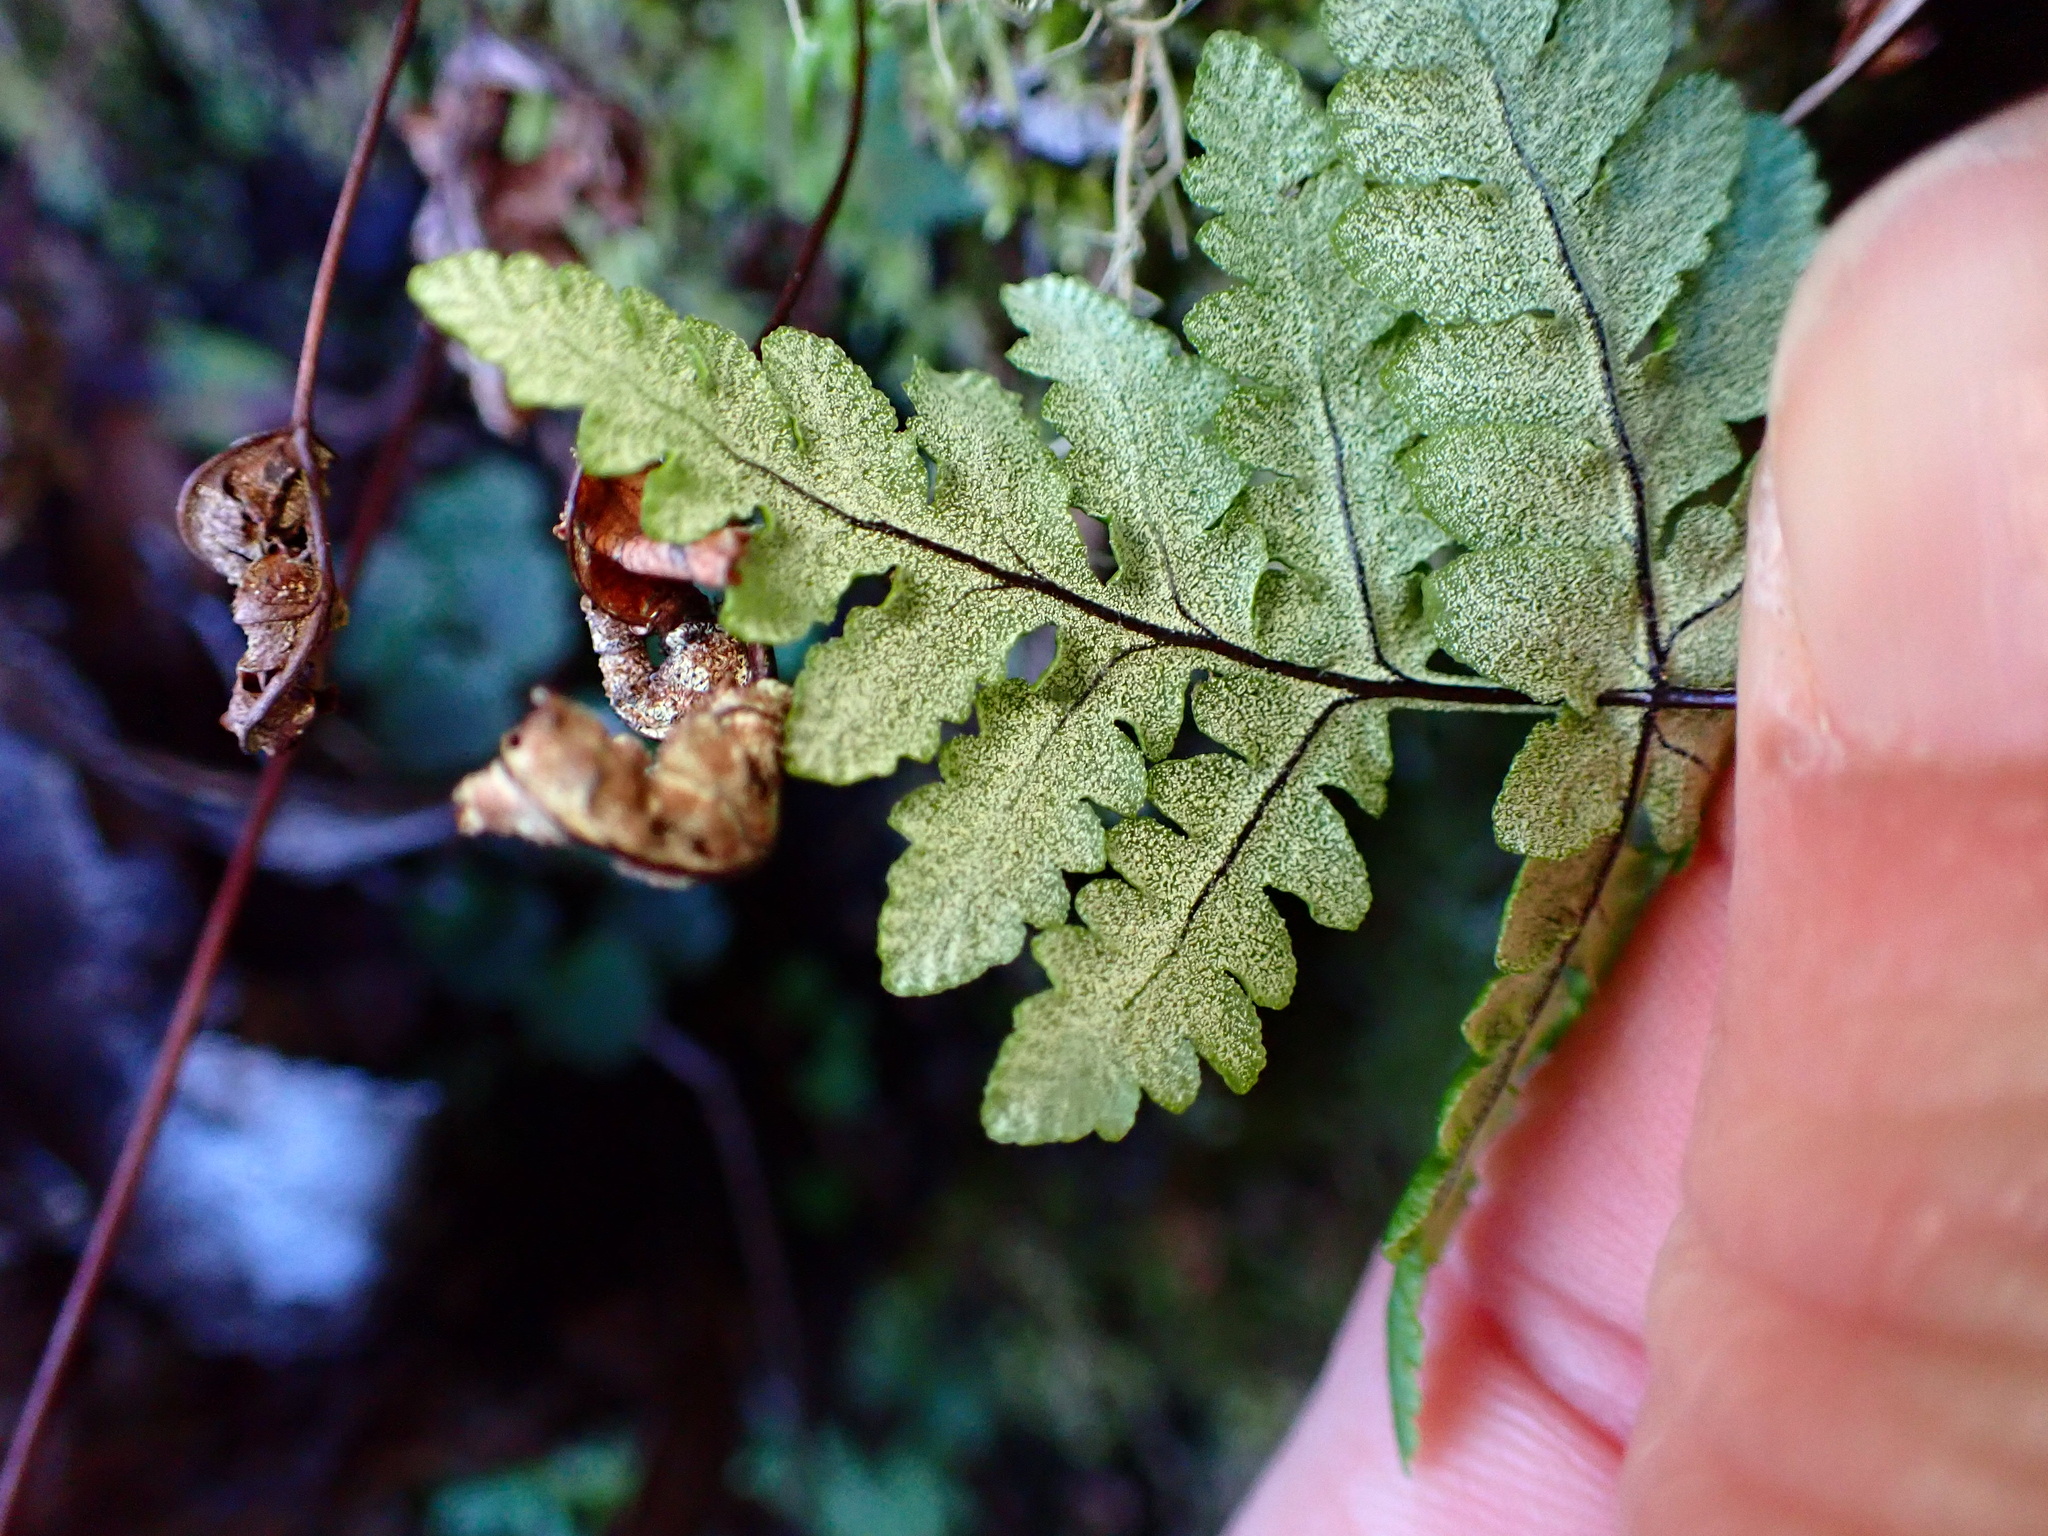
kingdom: Plantae
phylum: Tracheophyta
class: Polypodiopsida
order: Polypodiales
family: Pteridaceae
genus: Pentagramma
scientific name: Pentagramma triangularis
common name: Gold fern
